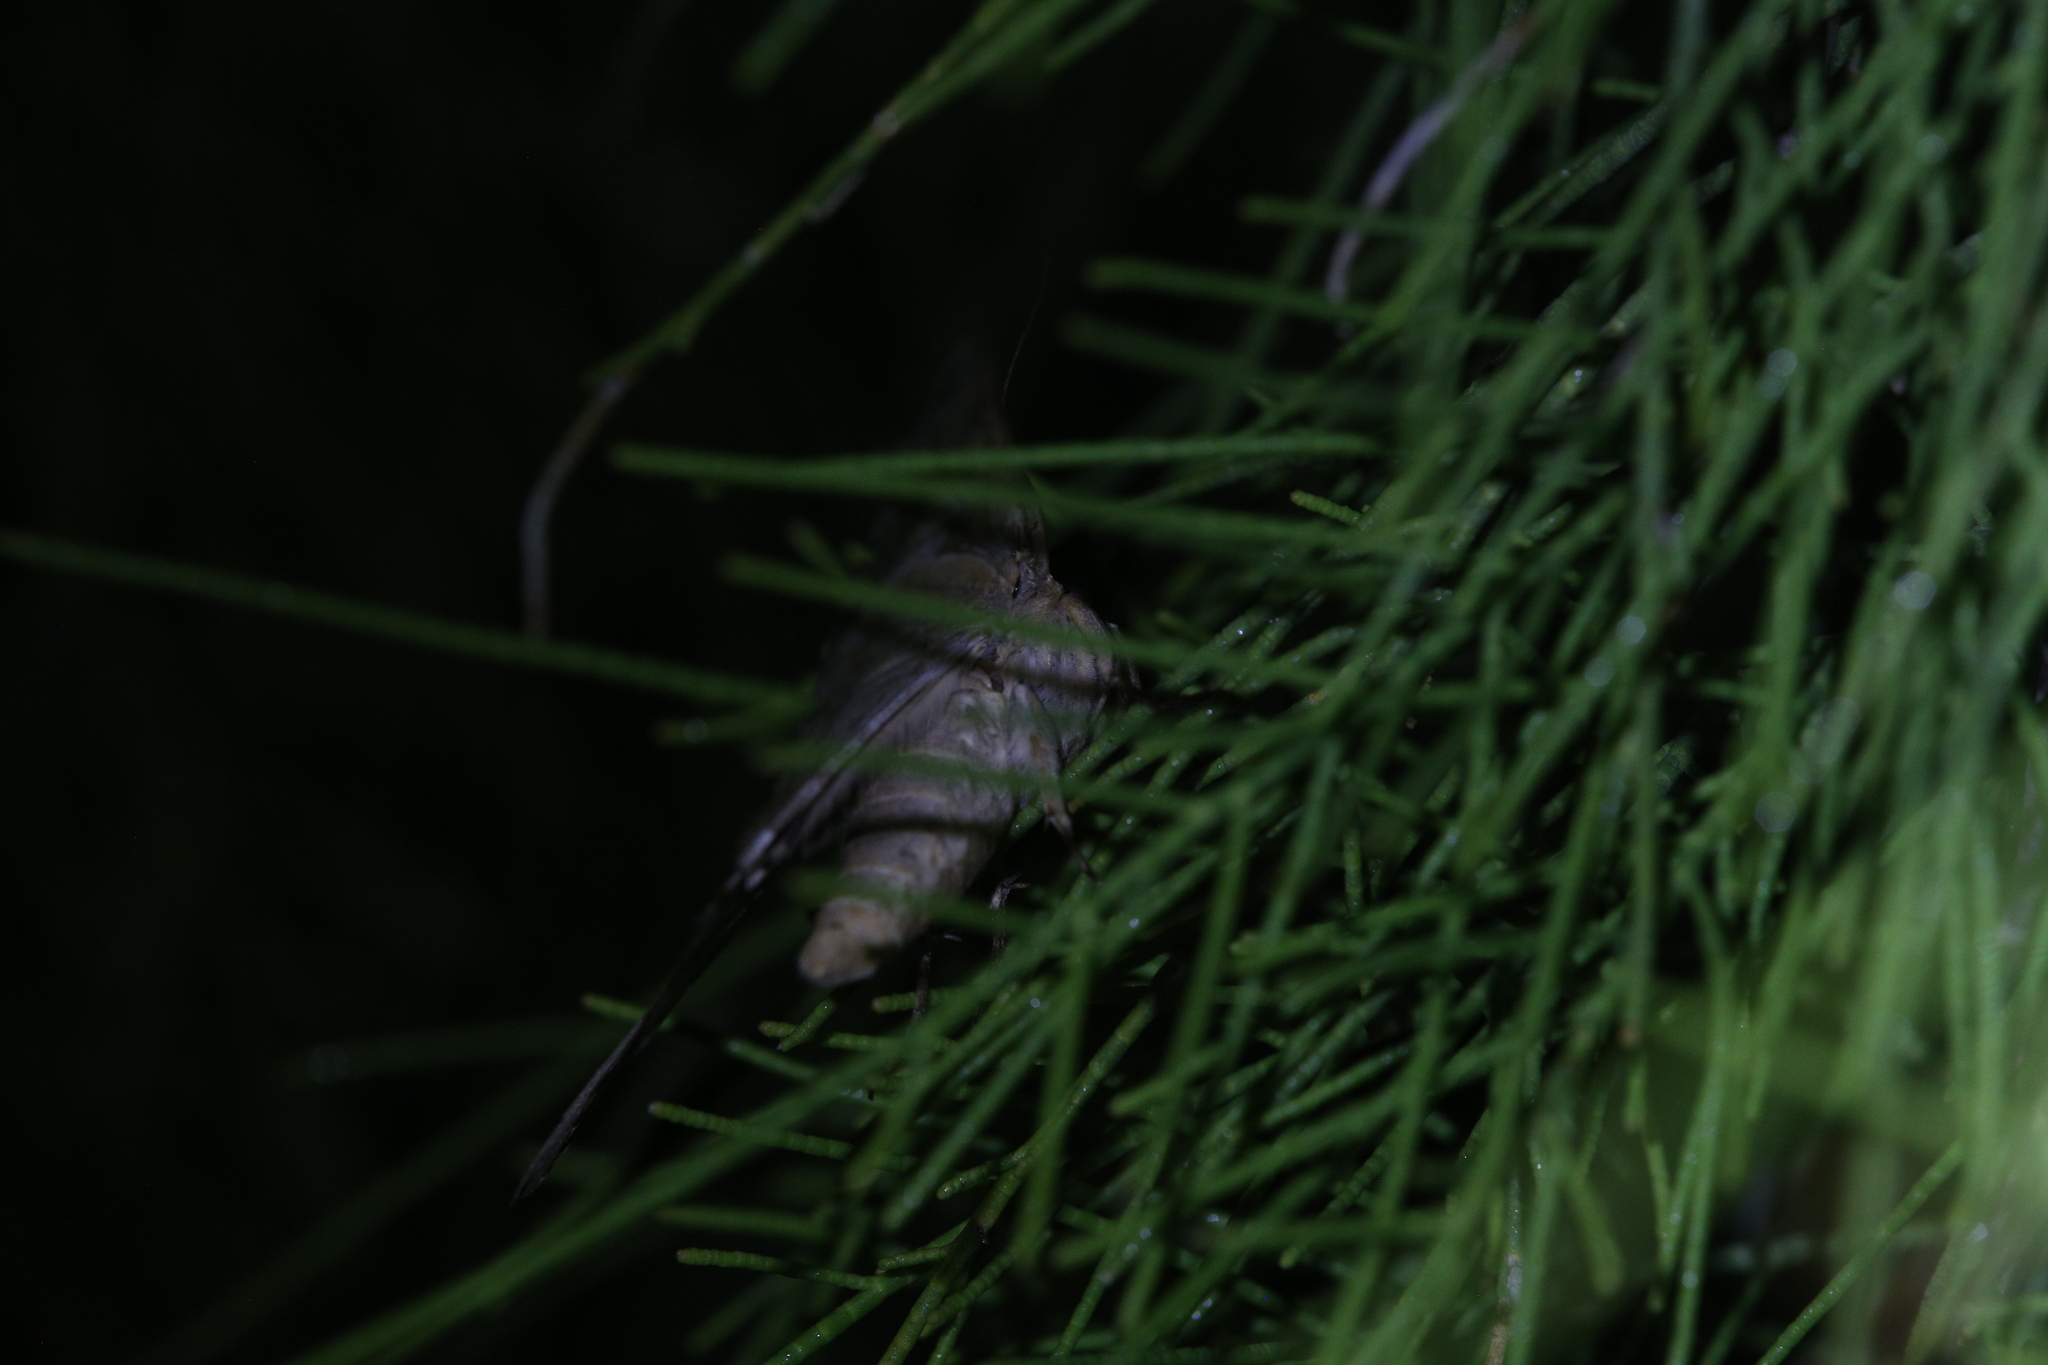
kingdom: Animalia
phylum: Arthropoda
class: Insecta
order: Lepidoptera
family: Erebidae
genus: Achaea
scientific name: Achaea janata
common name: Croton caterpillar
